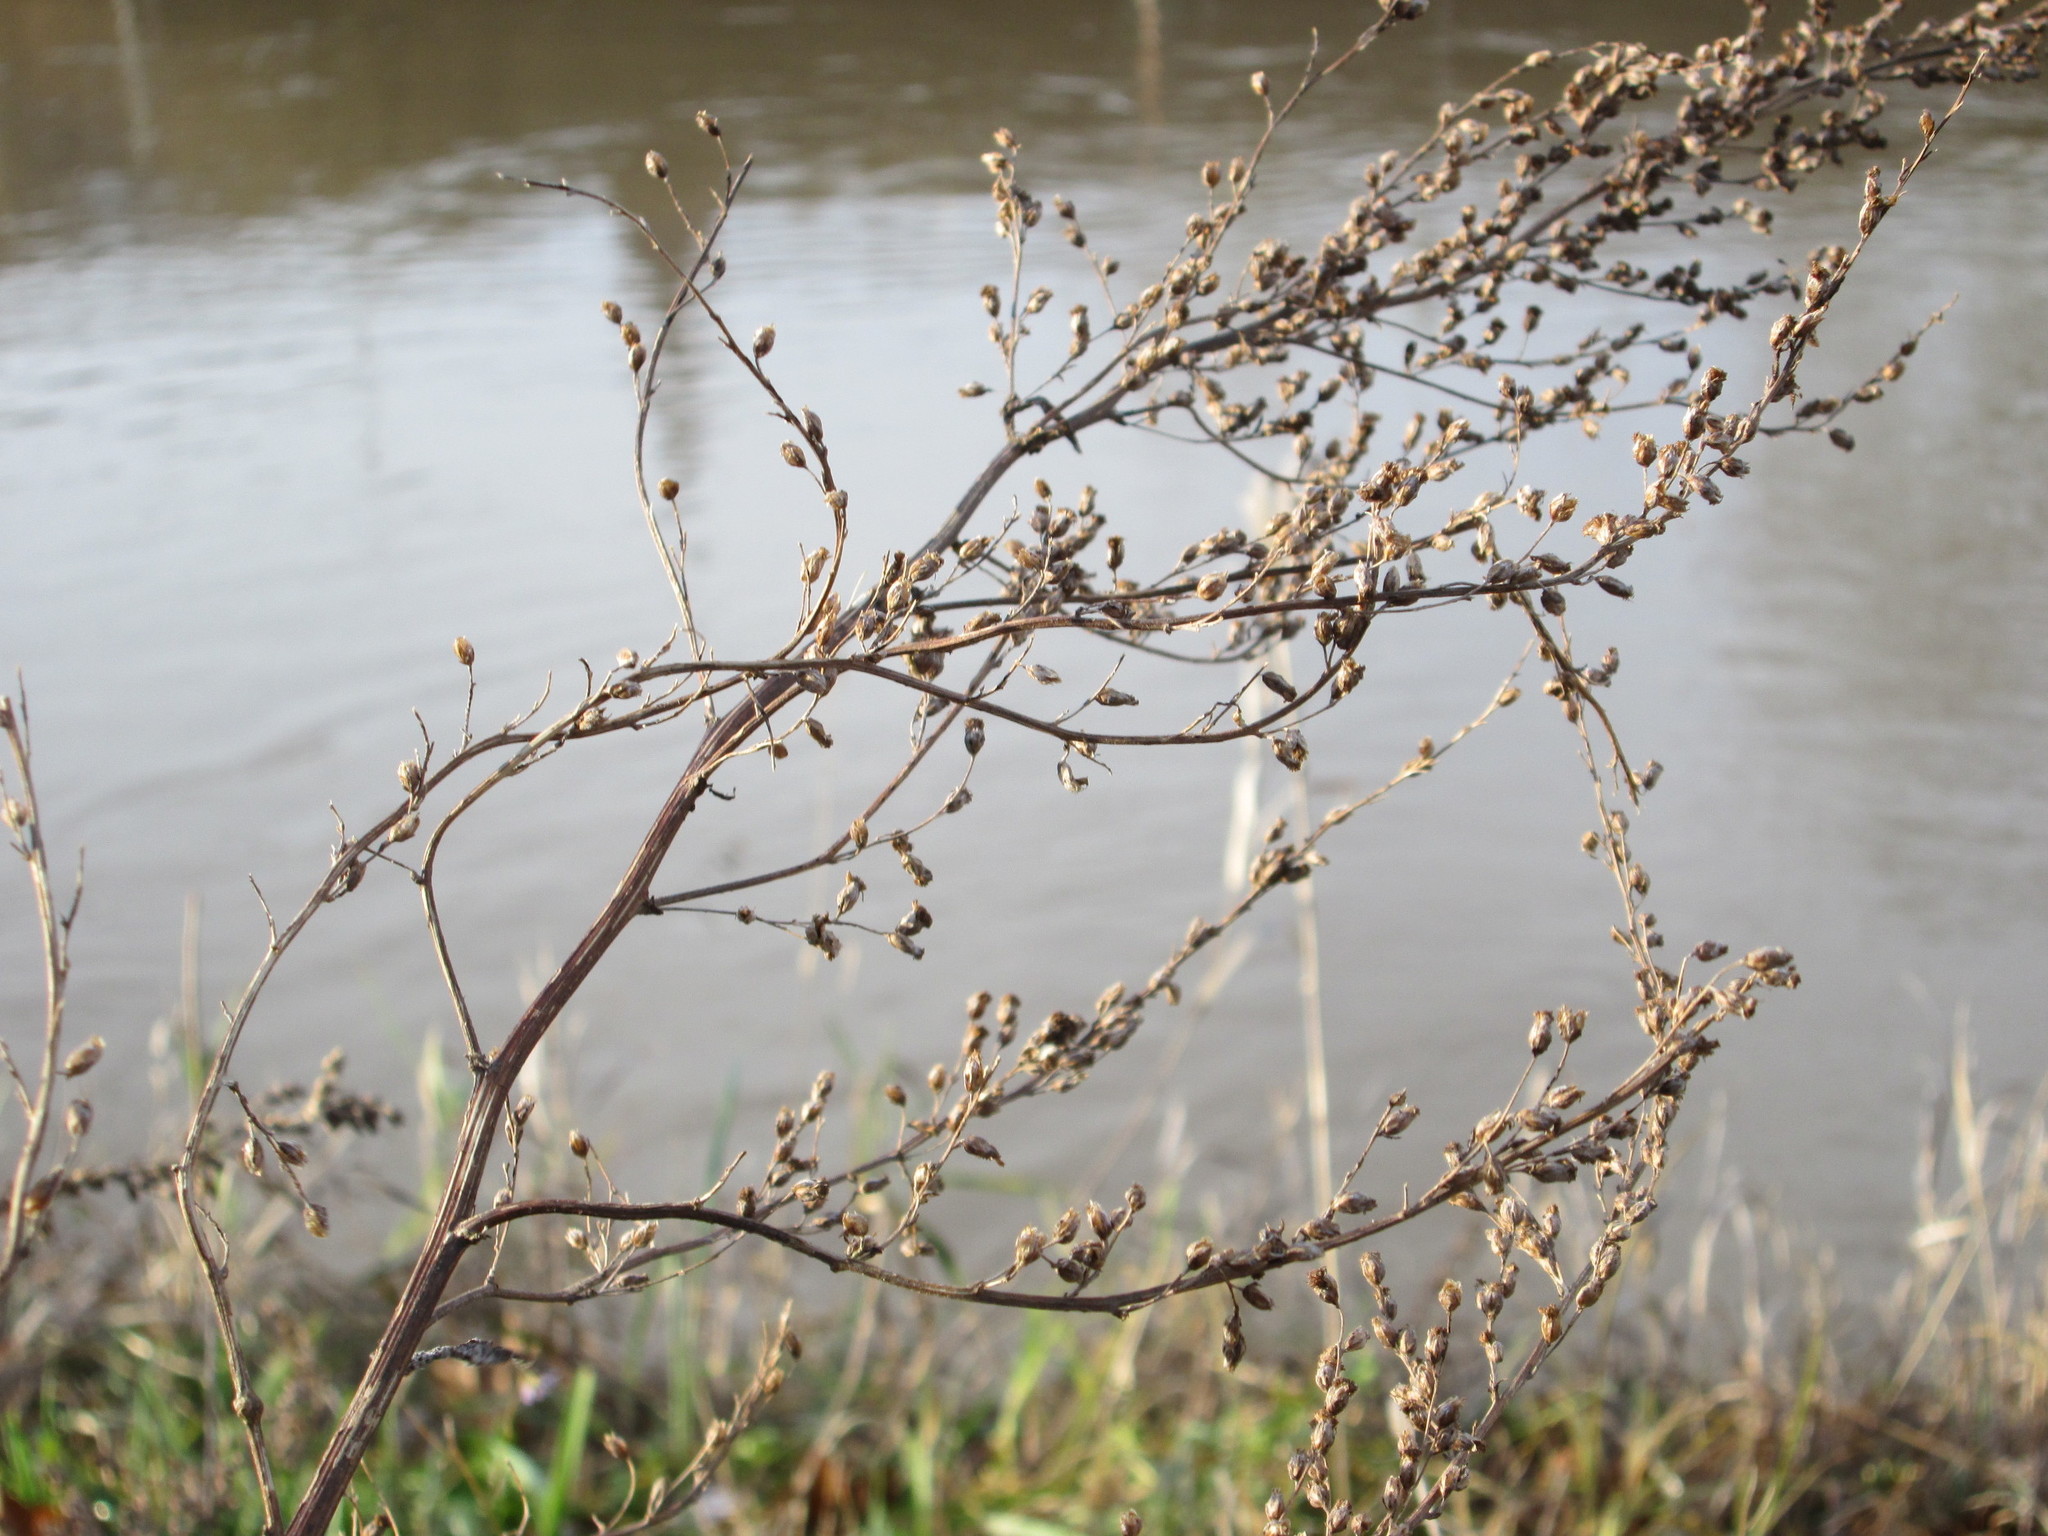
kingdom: Plantae
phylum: Tracheophyta
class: Magnoliopsida
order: Asterales
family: Asteraceae
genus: Artemisia
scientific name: Artemisia vulgaris
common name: Mugwort
